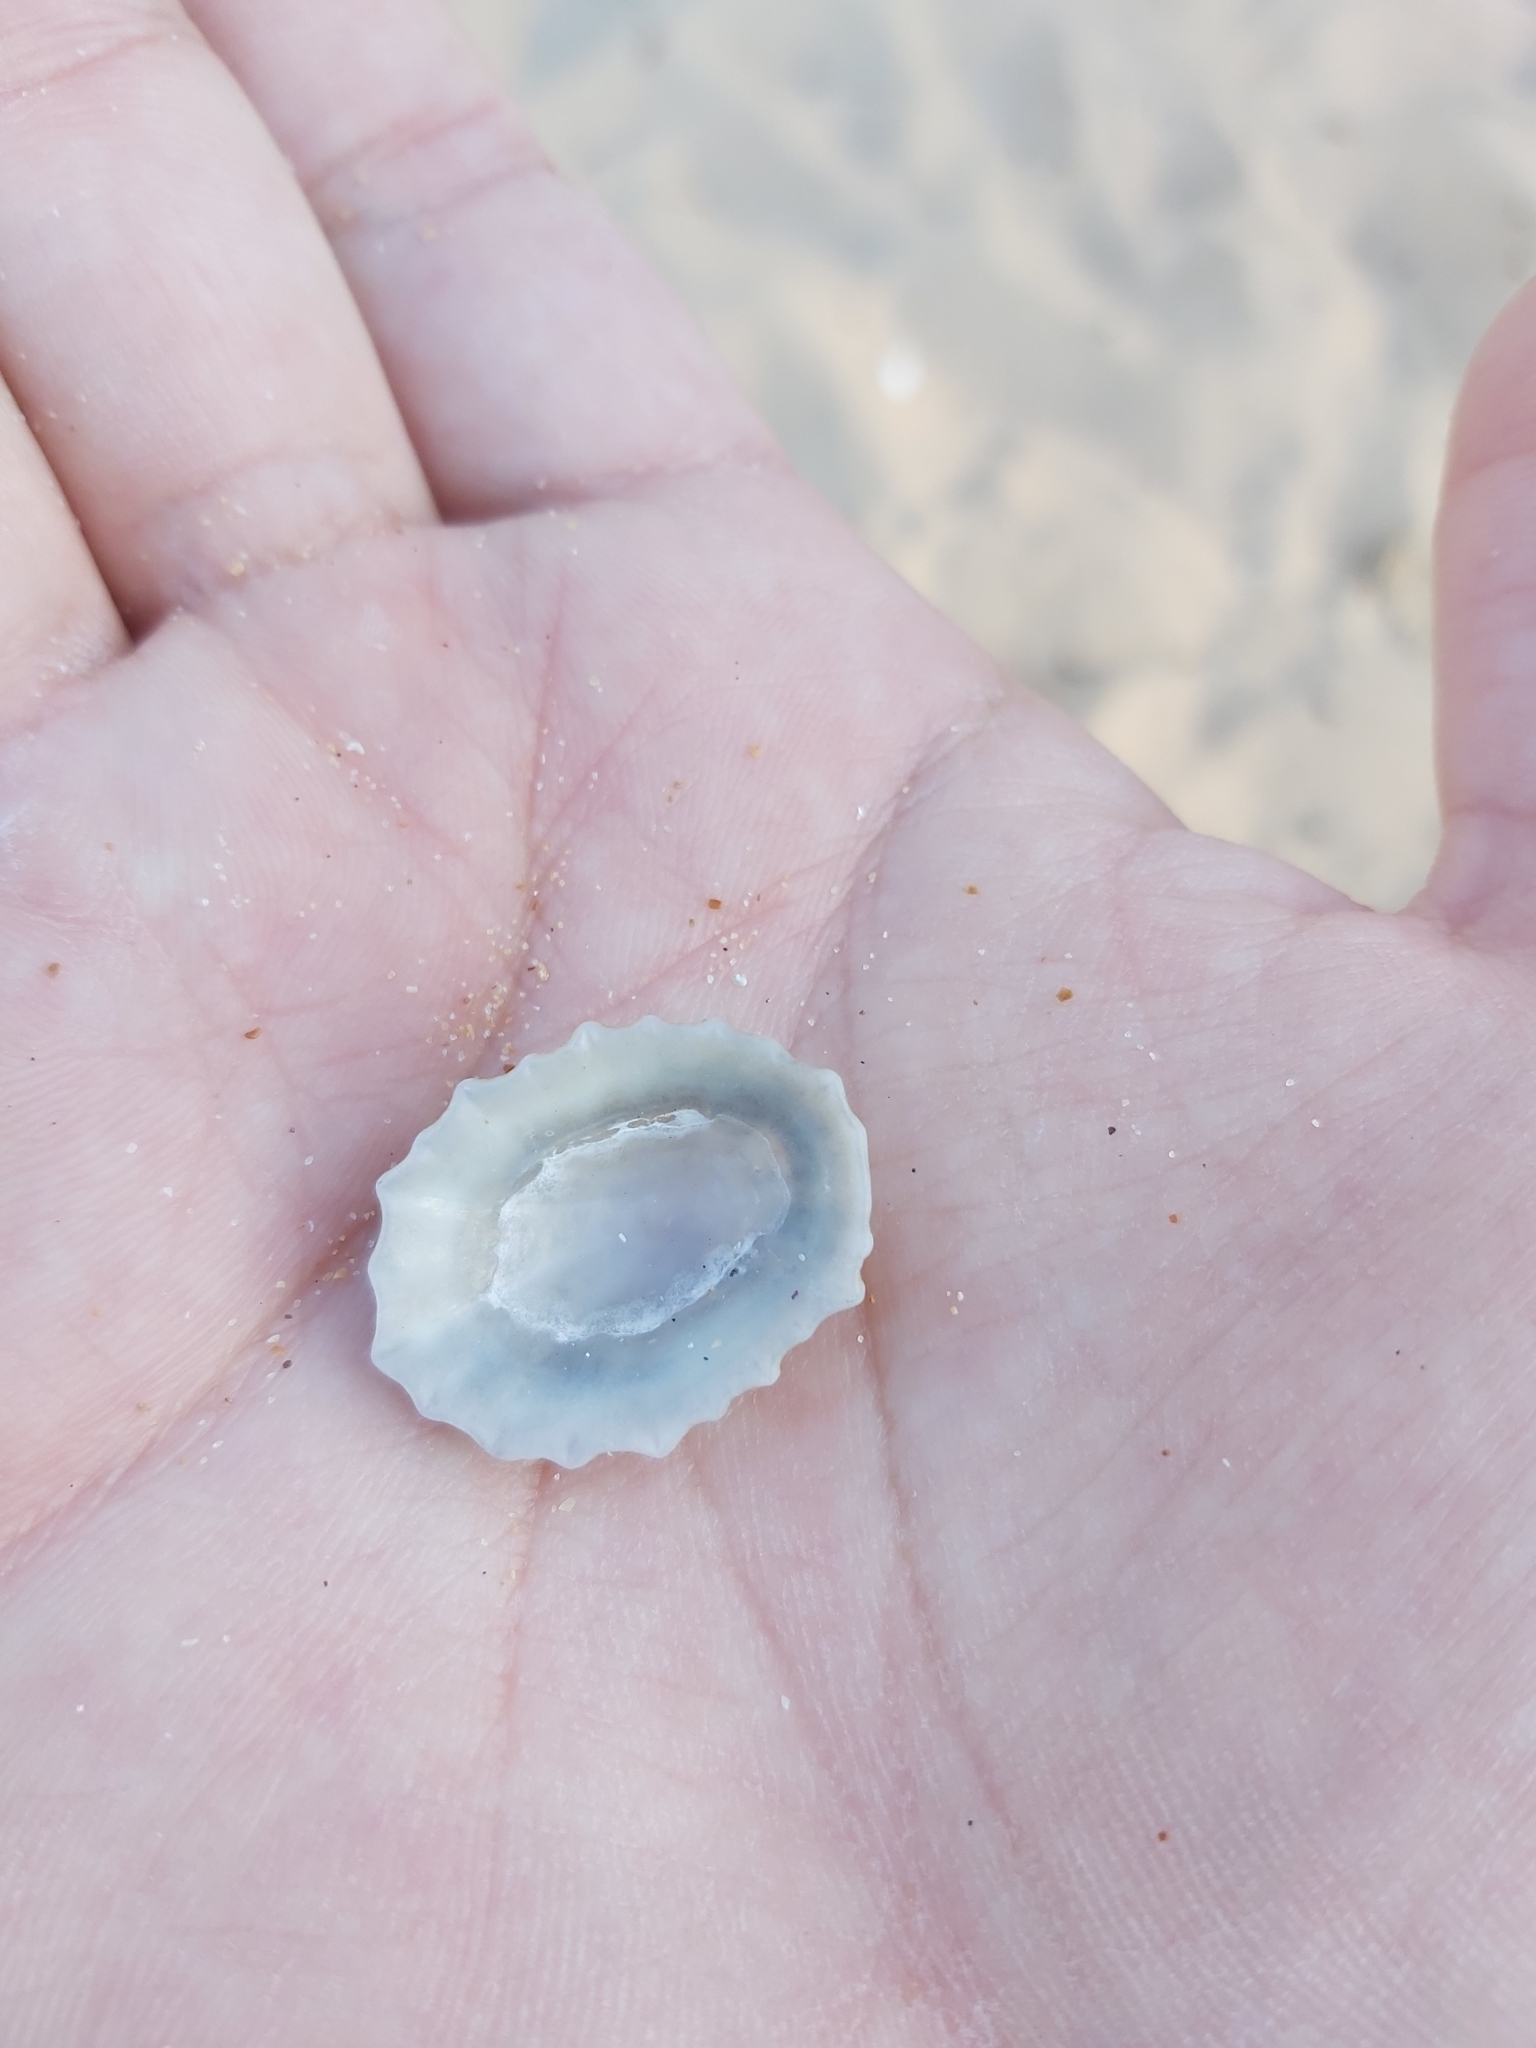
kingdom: Animalia
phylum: Mollusca
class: Gastropoda
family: Patellidae
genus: Scutellastra
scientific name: Scutellastra peronii
